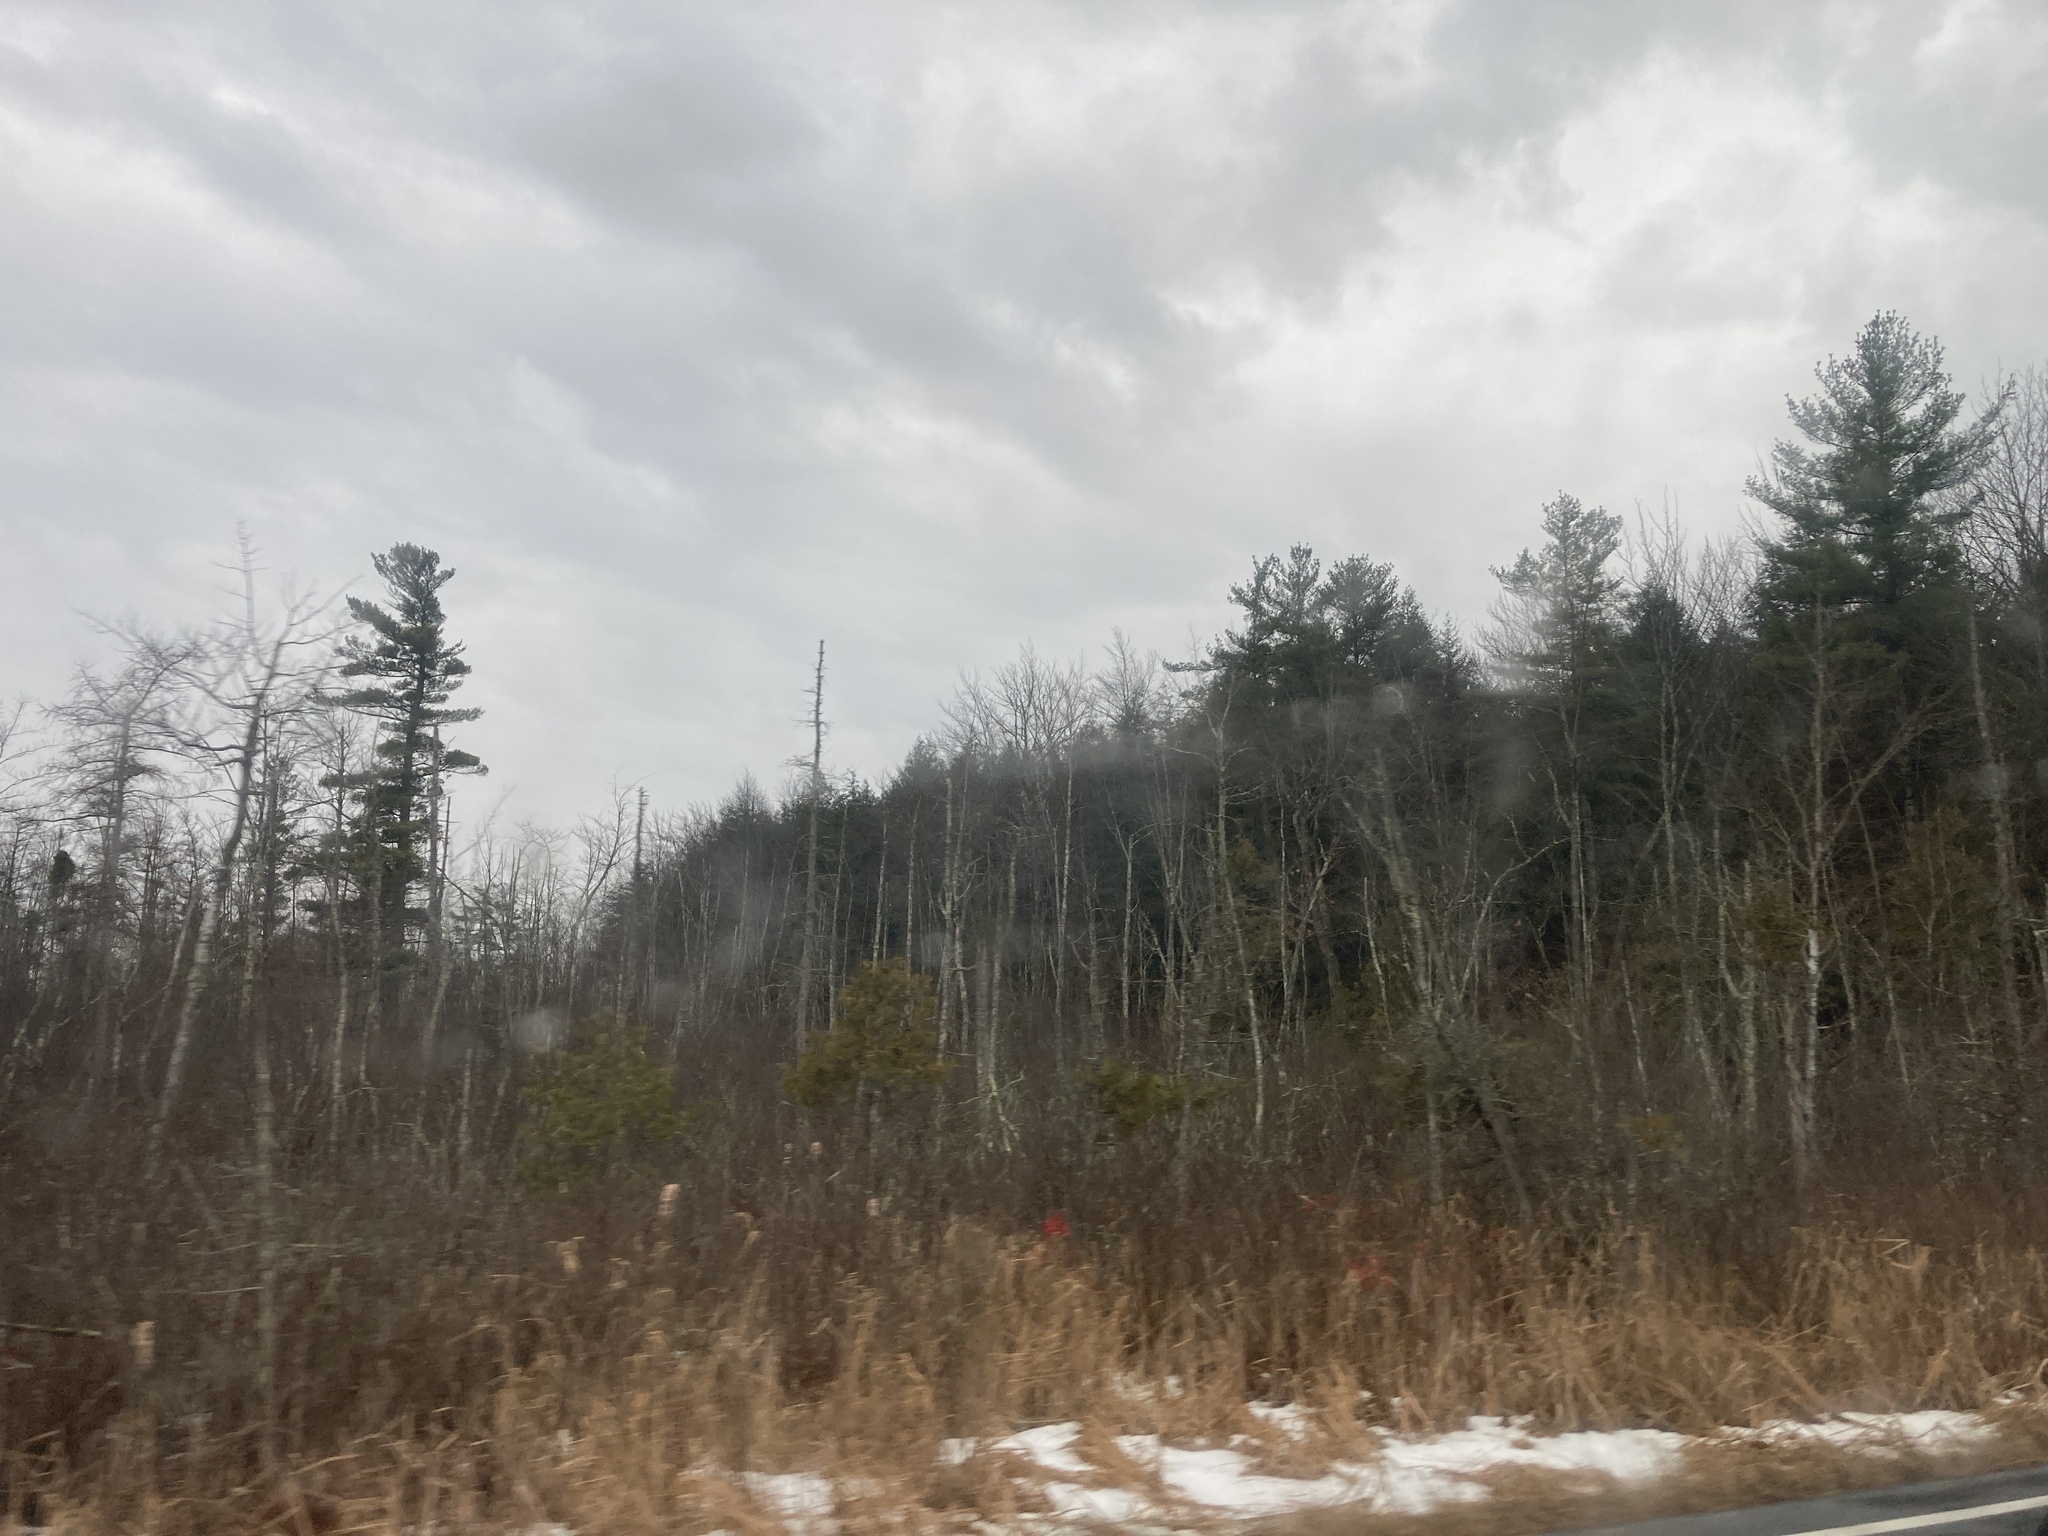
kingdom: Plantae
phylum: Tracheophyta
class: Pinopsida
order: Pinales
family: Cupressaceae
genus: Thuja
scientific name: Thuja occidentalis
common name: Northern white-cedar
